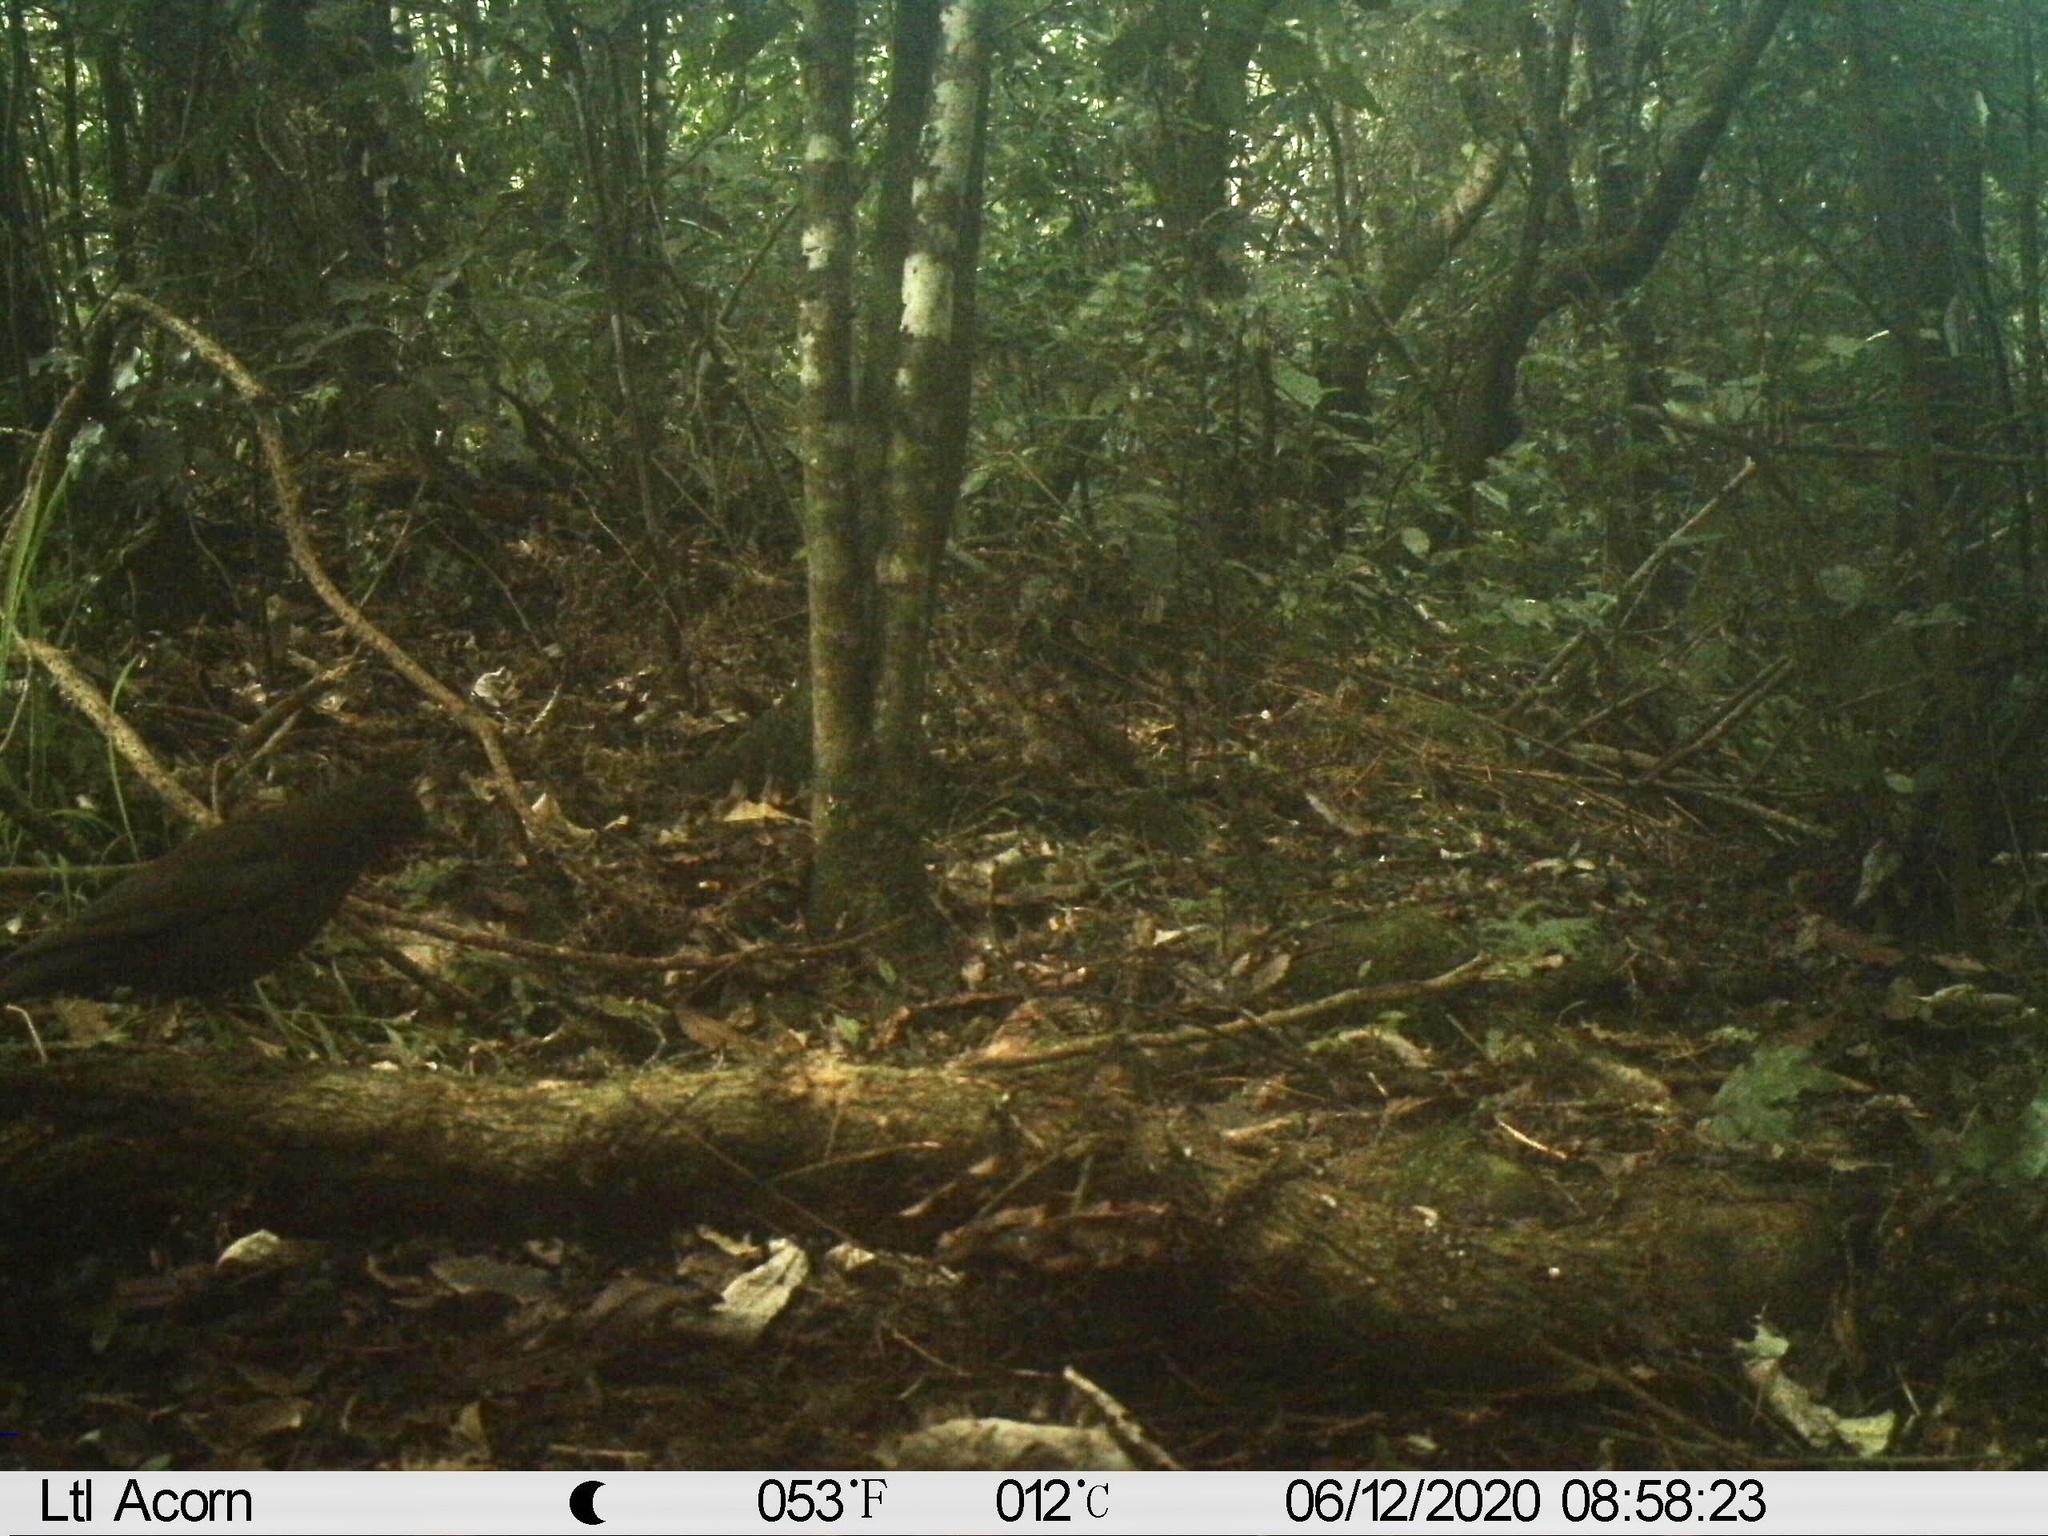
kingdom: Animalia
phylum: Chordata
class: Aves
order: Passeriformes
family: Turdidae
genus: Turdus
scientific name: Turdus merula
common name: Common blackbird
